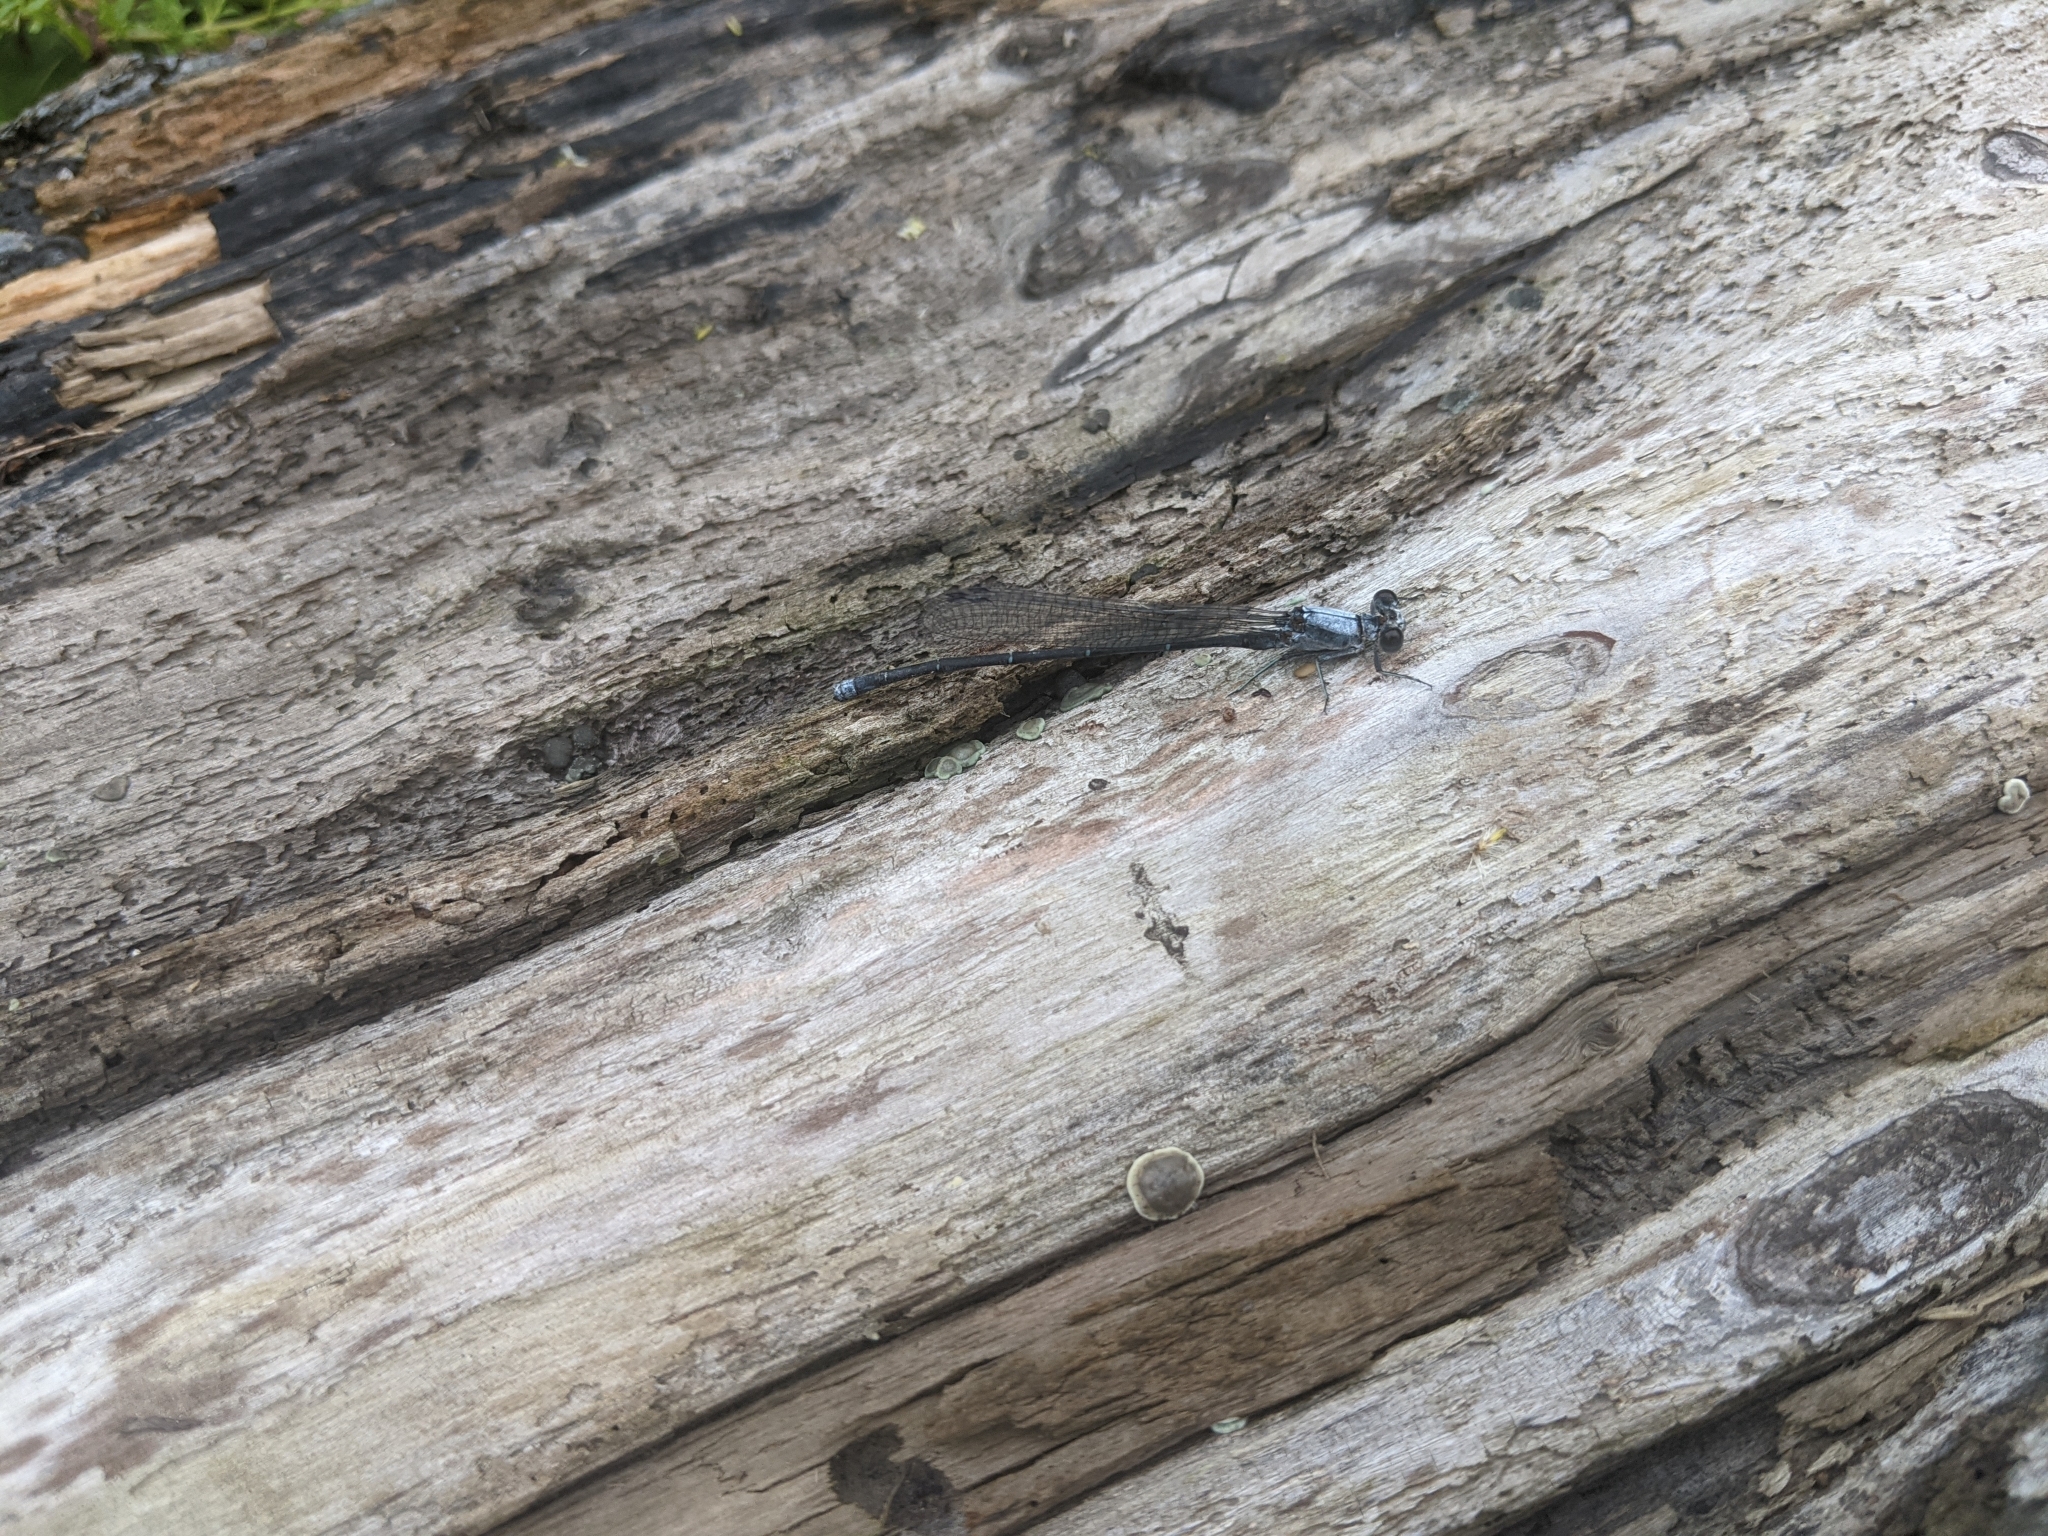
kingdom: Animalia
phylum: Arthropoda
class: Insecta
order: Odonata
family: Coenagrionidae
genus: Argia
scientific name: Argia moesta
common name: Powdered dancer
